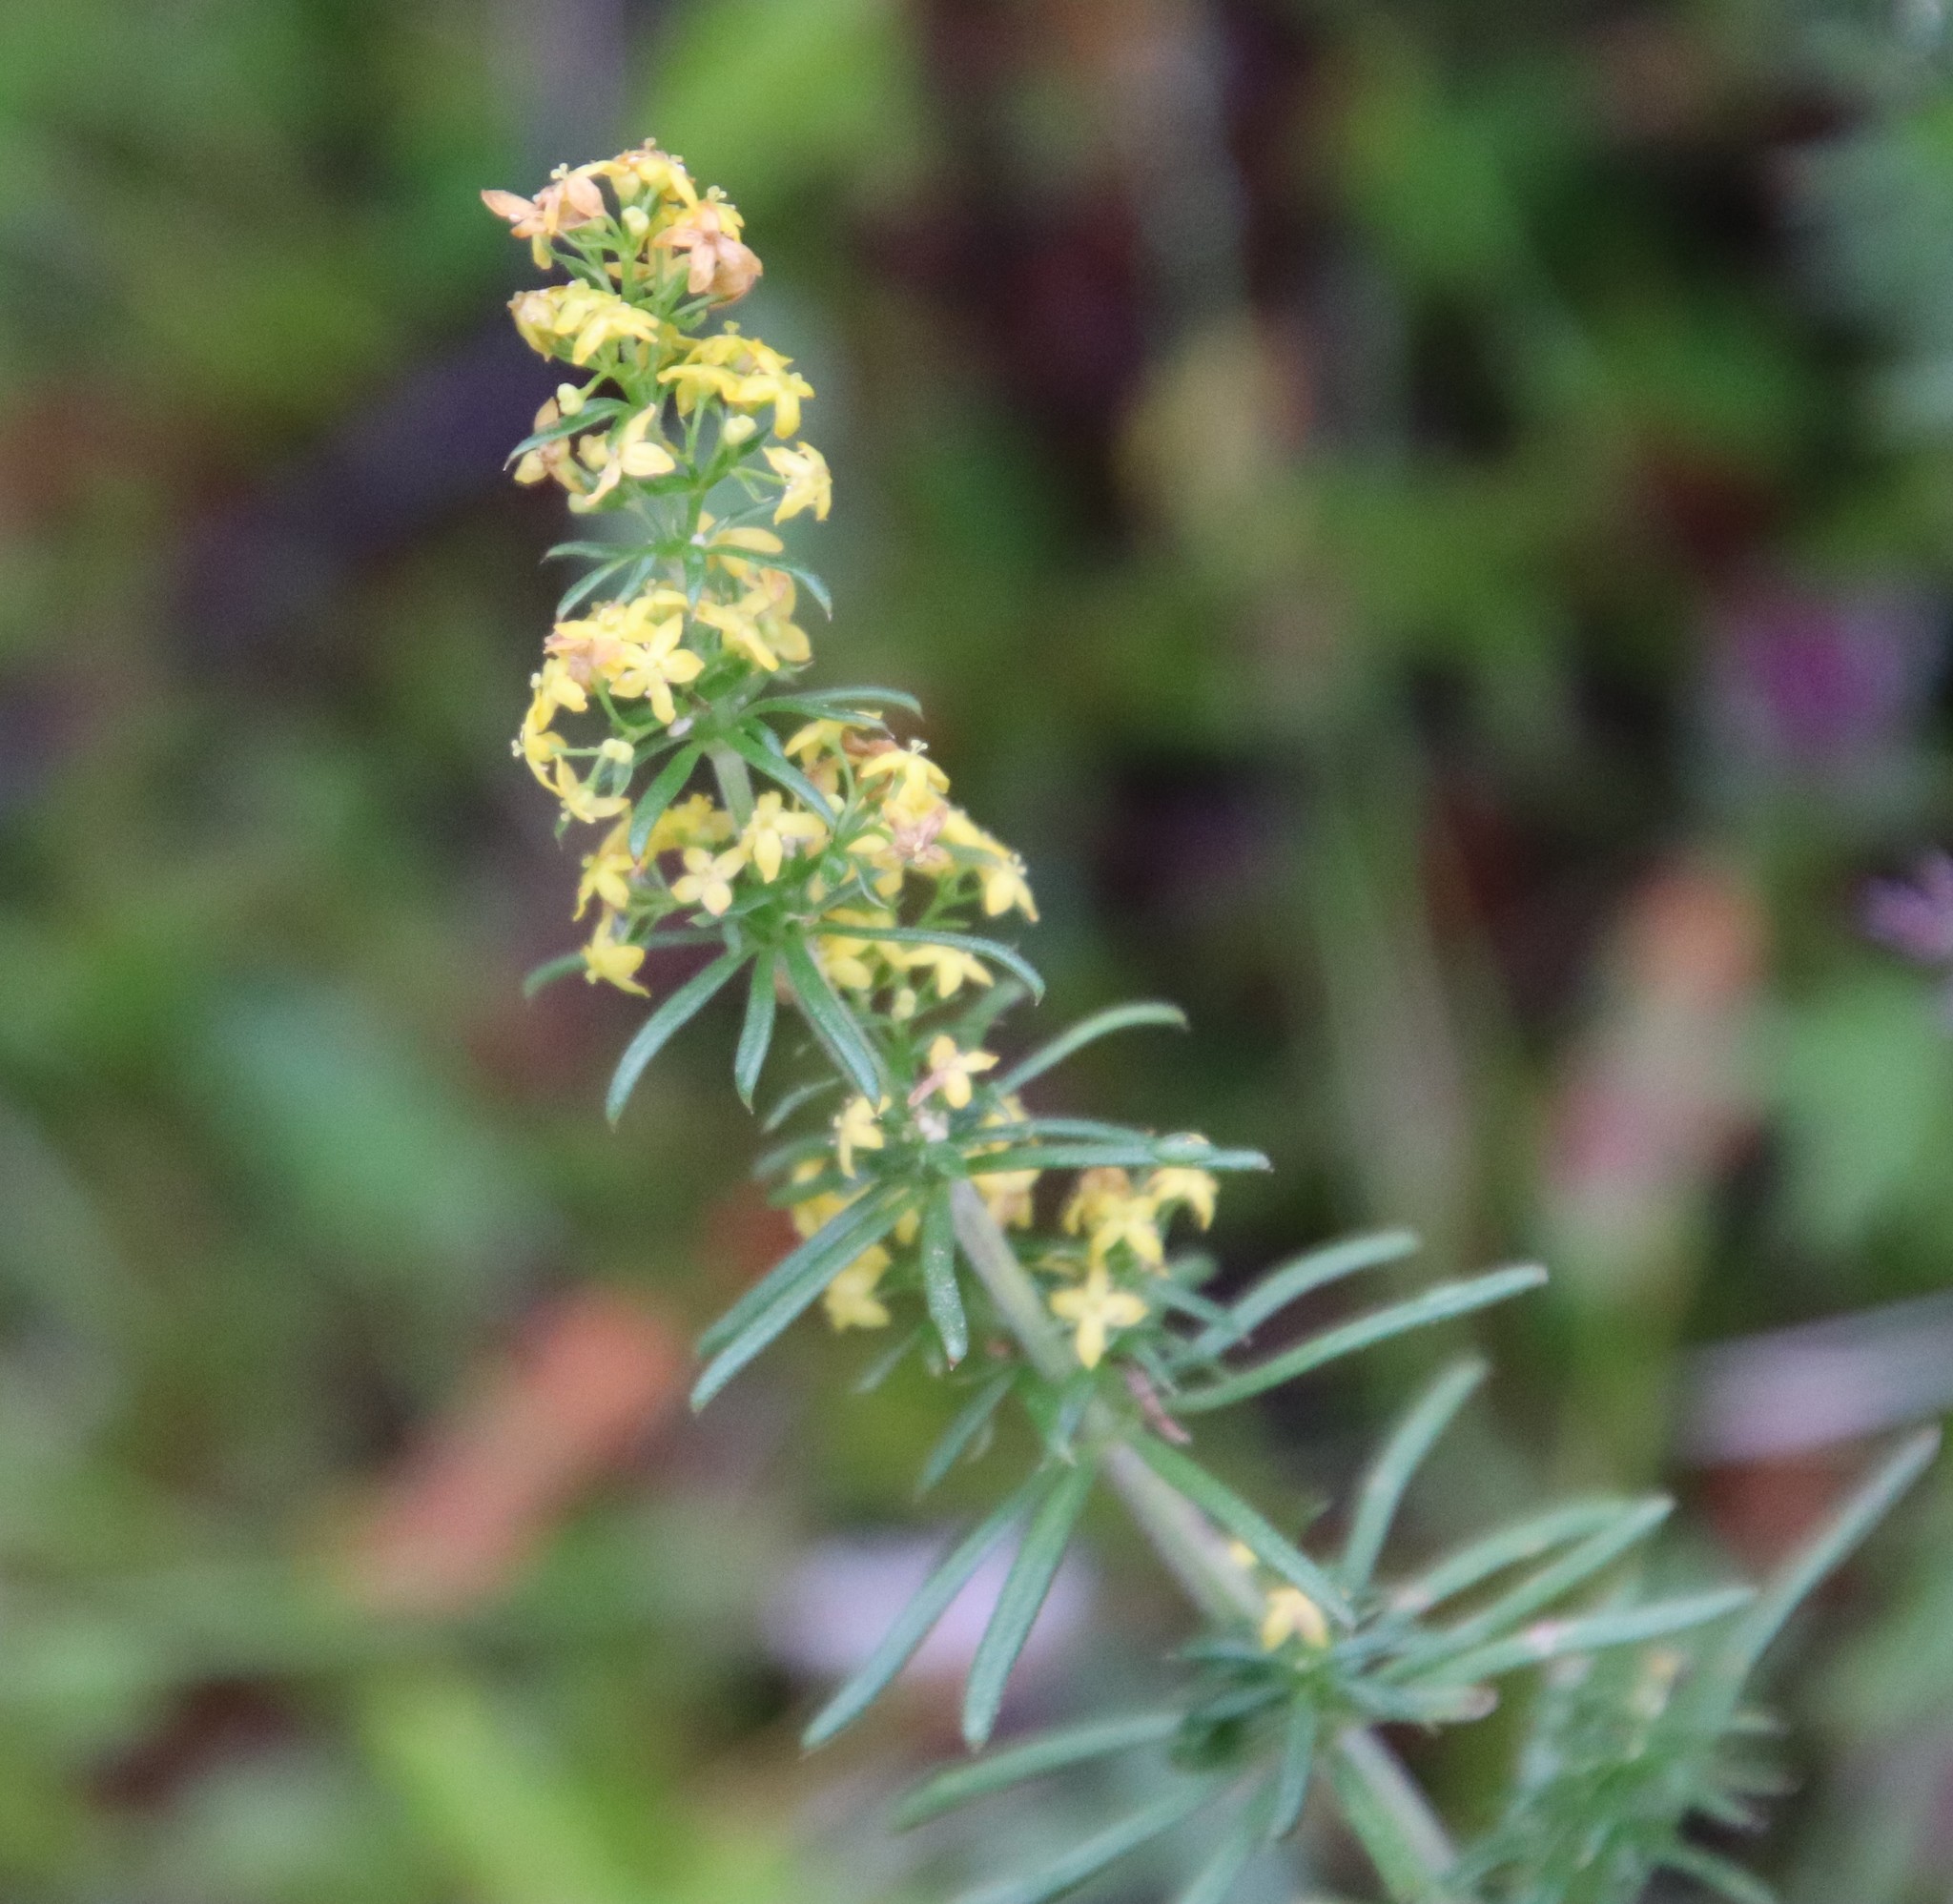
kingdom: Plantae
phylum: Tracheophyta
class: Magnoliopsida
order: Gentianales
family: Rubiaceae
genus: Galium
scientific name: Galium verum
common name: Lady's bedstraw
